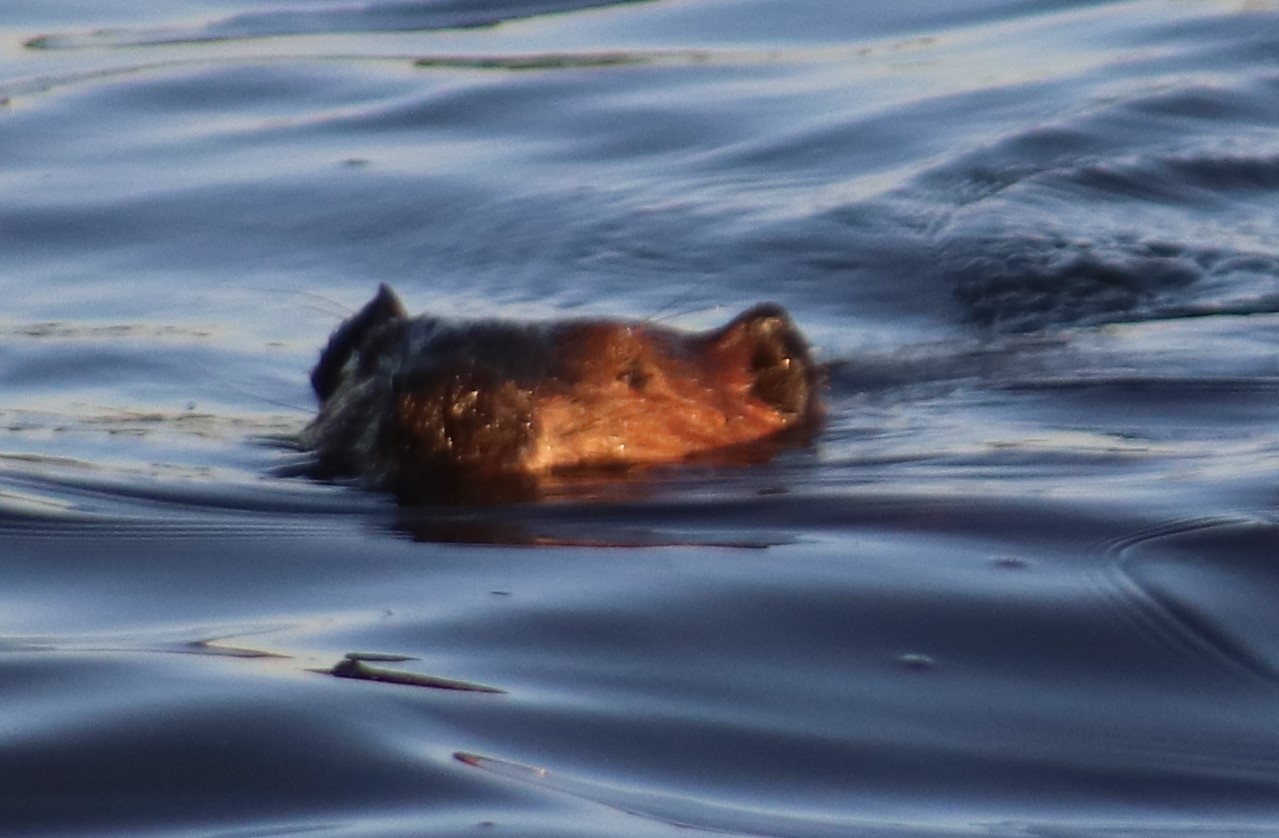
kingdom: Animalia
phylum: Chordata
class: Mammalia
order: Rodentia
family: Castoridae
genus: Castor
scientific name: Castor canadensis
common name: American beaver
